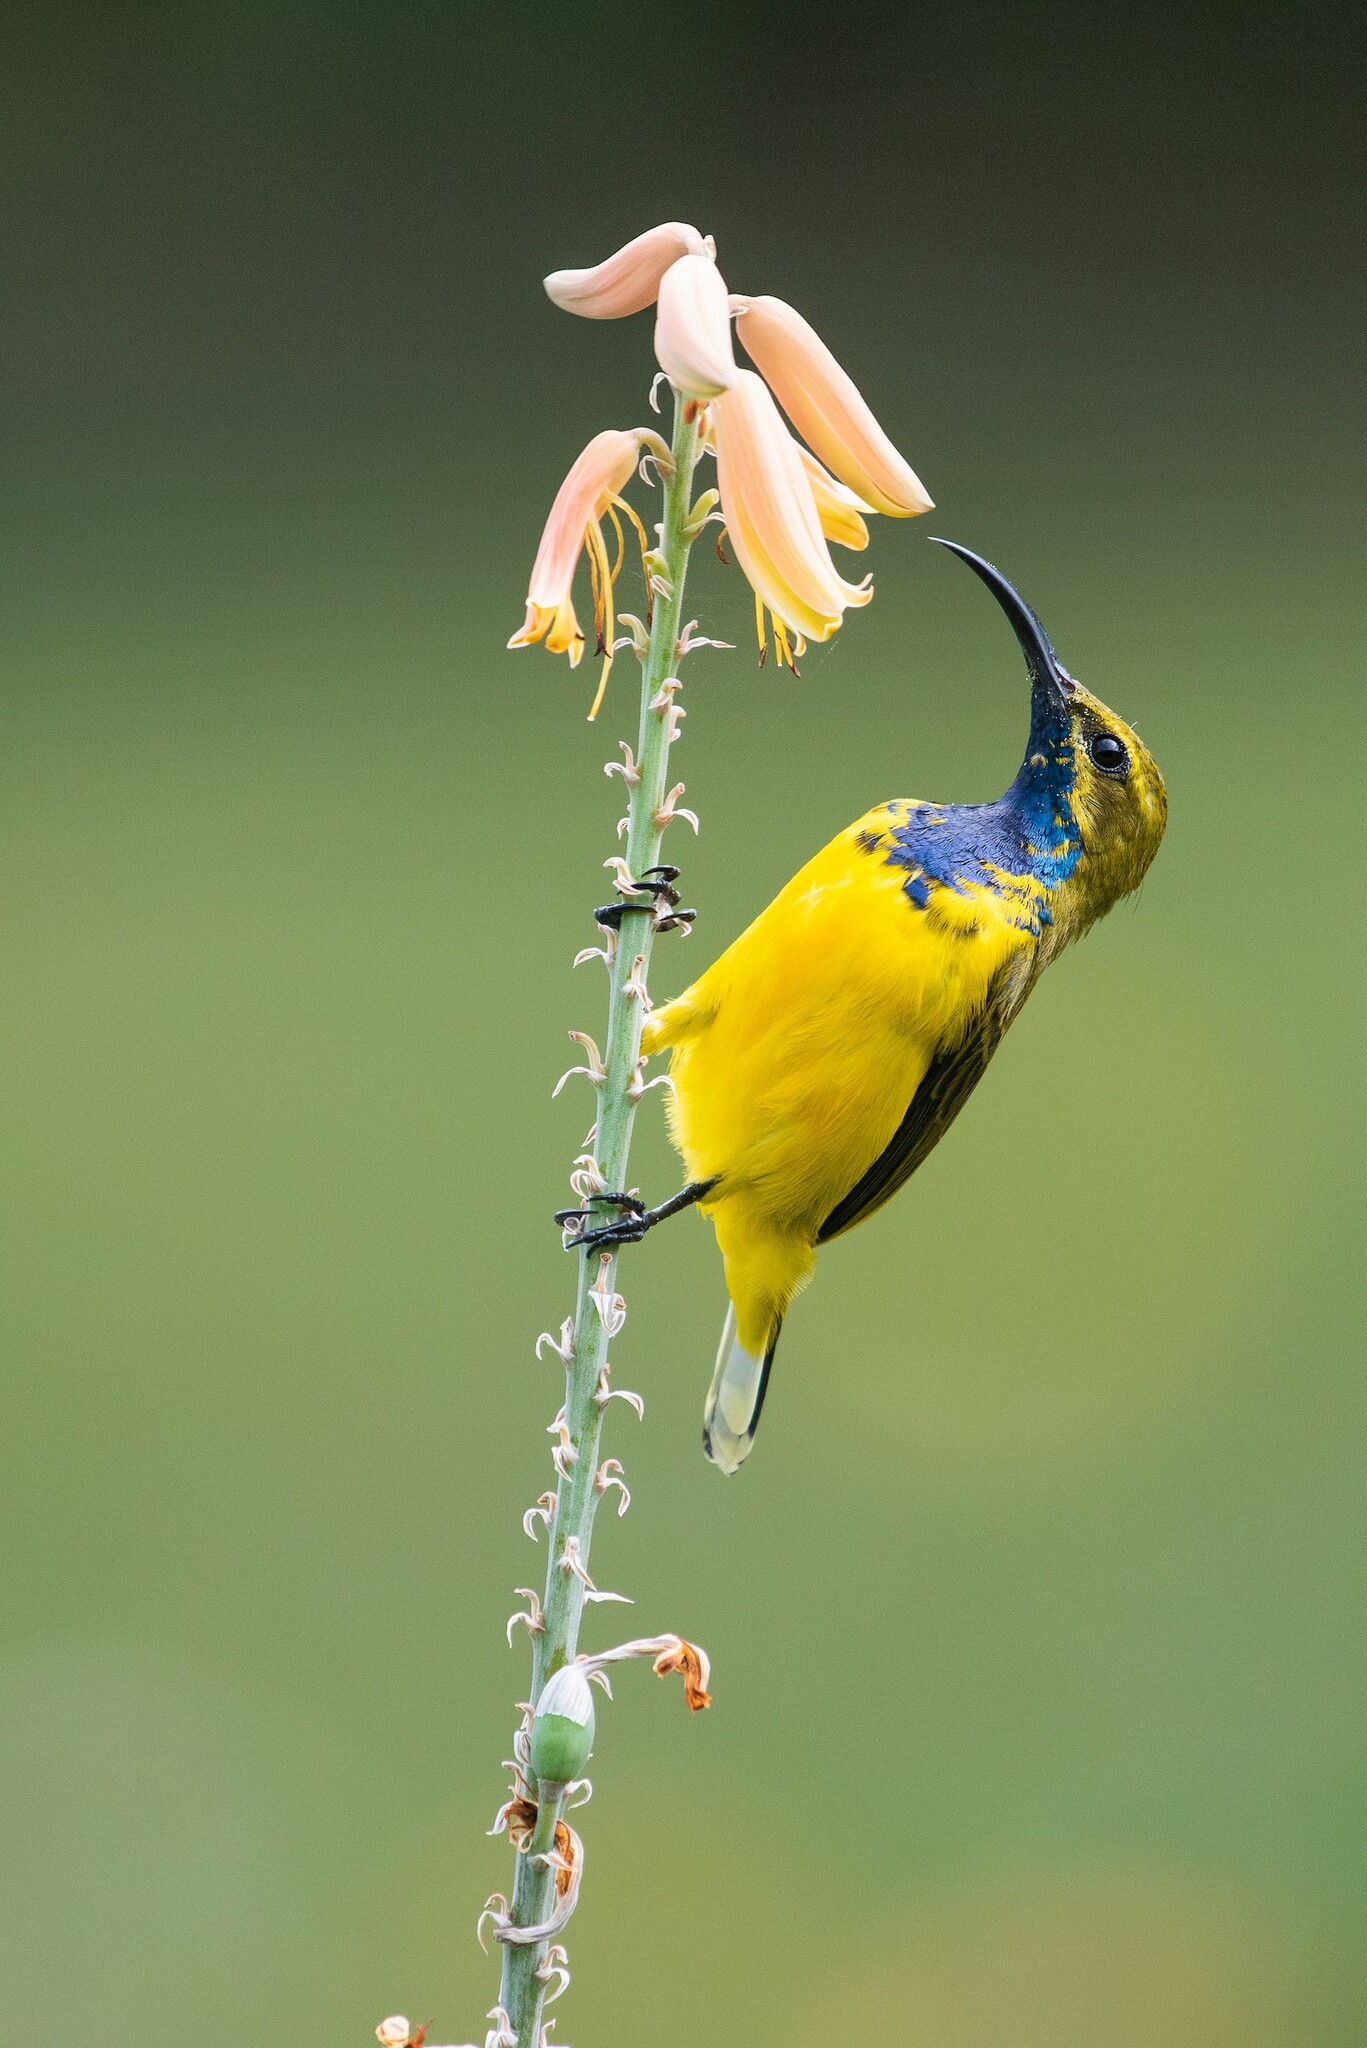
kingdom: Animalia
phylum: Chordata
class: Aves
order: Passeriformes
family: Nectariniidae
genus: Cinnyris
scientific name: Cinnyris
